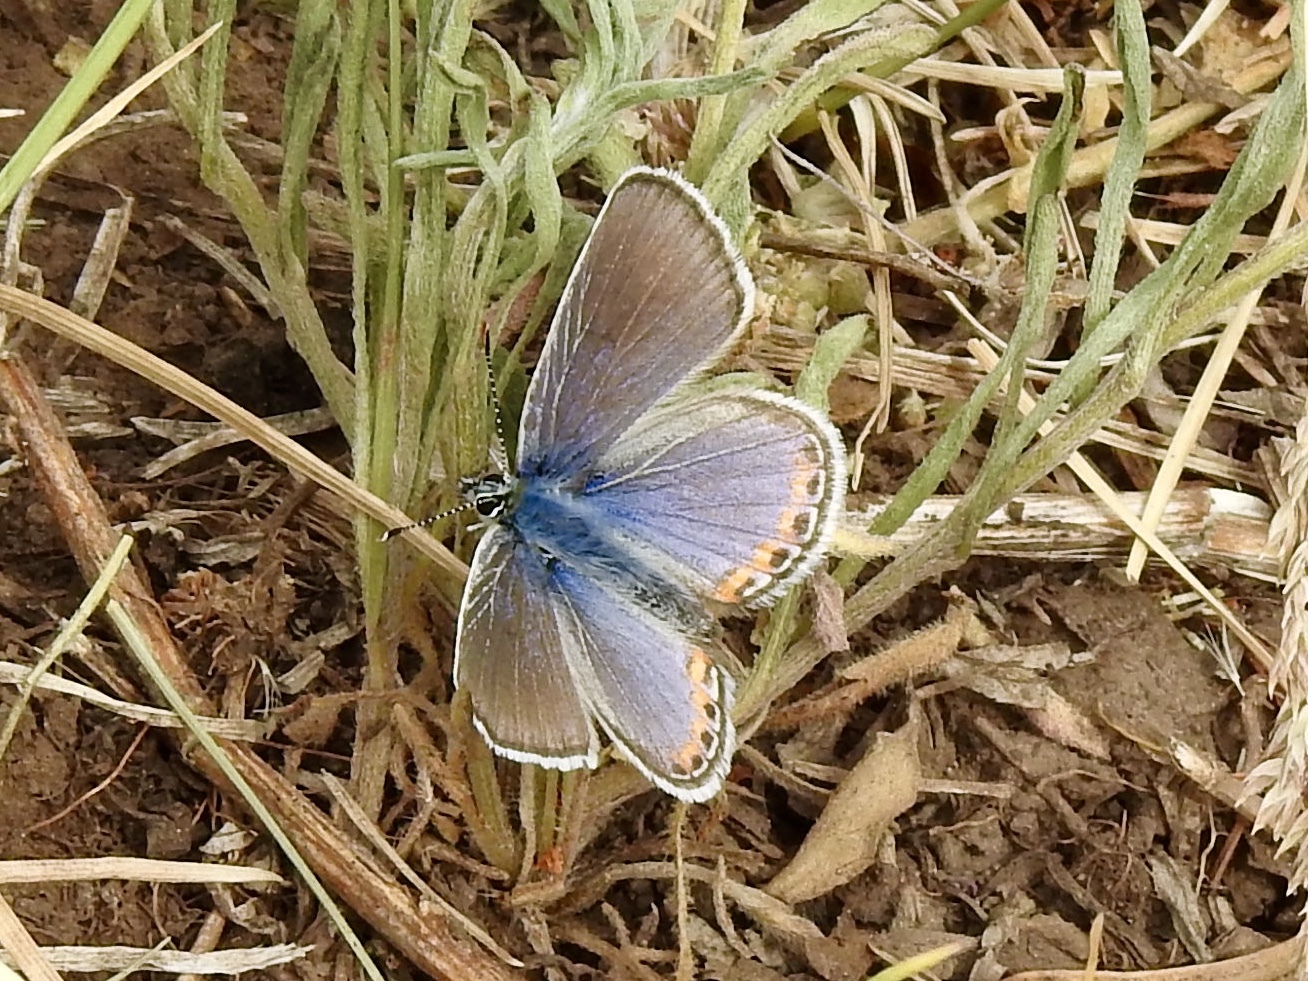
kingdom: Animalia
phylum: Arthropoda
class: Insecta
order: Lepidoptera
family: Lycaenidae
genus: Icaricia
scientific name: Icaricia lupini
